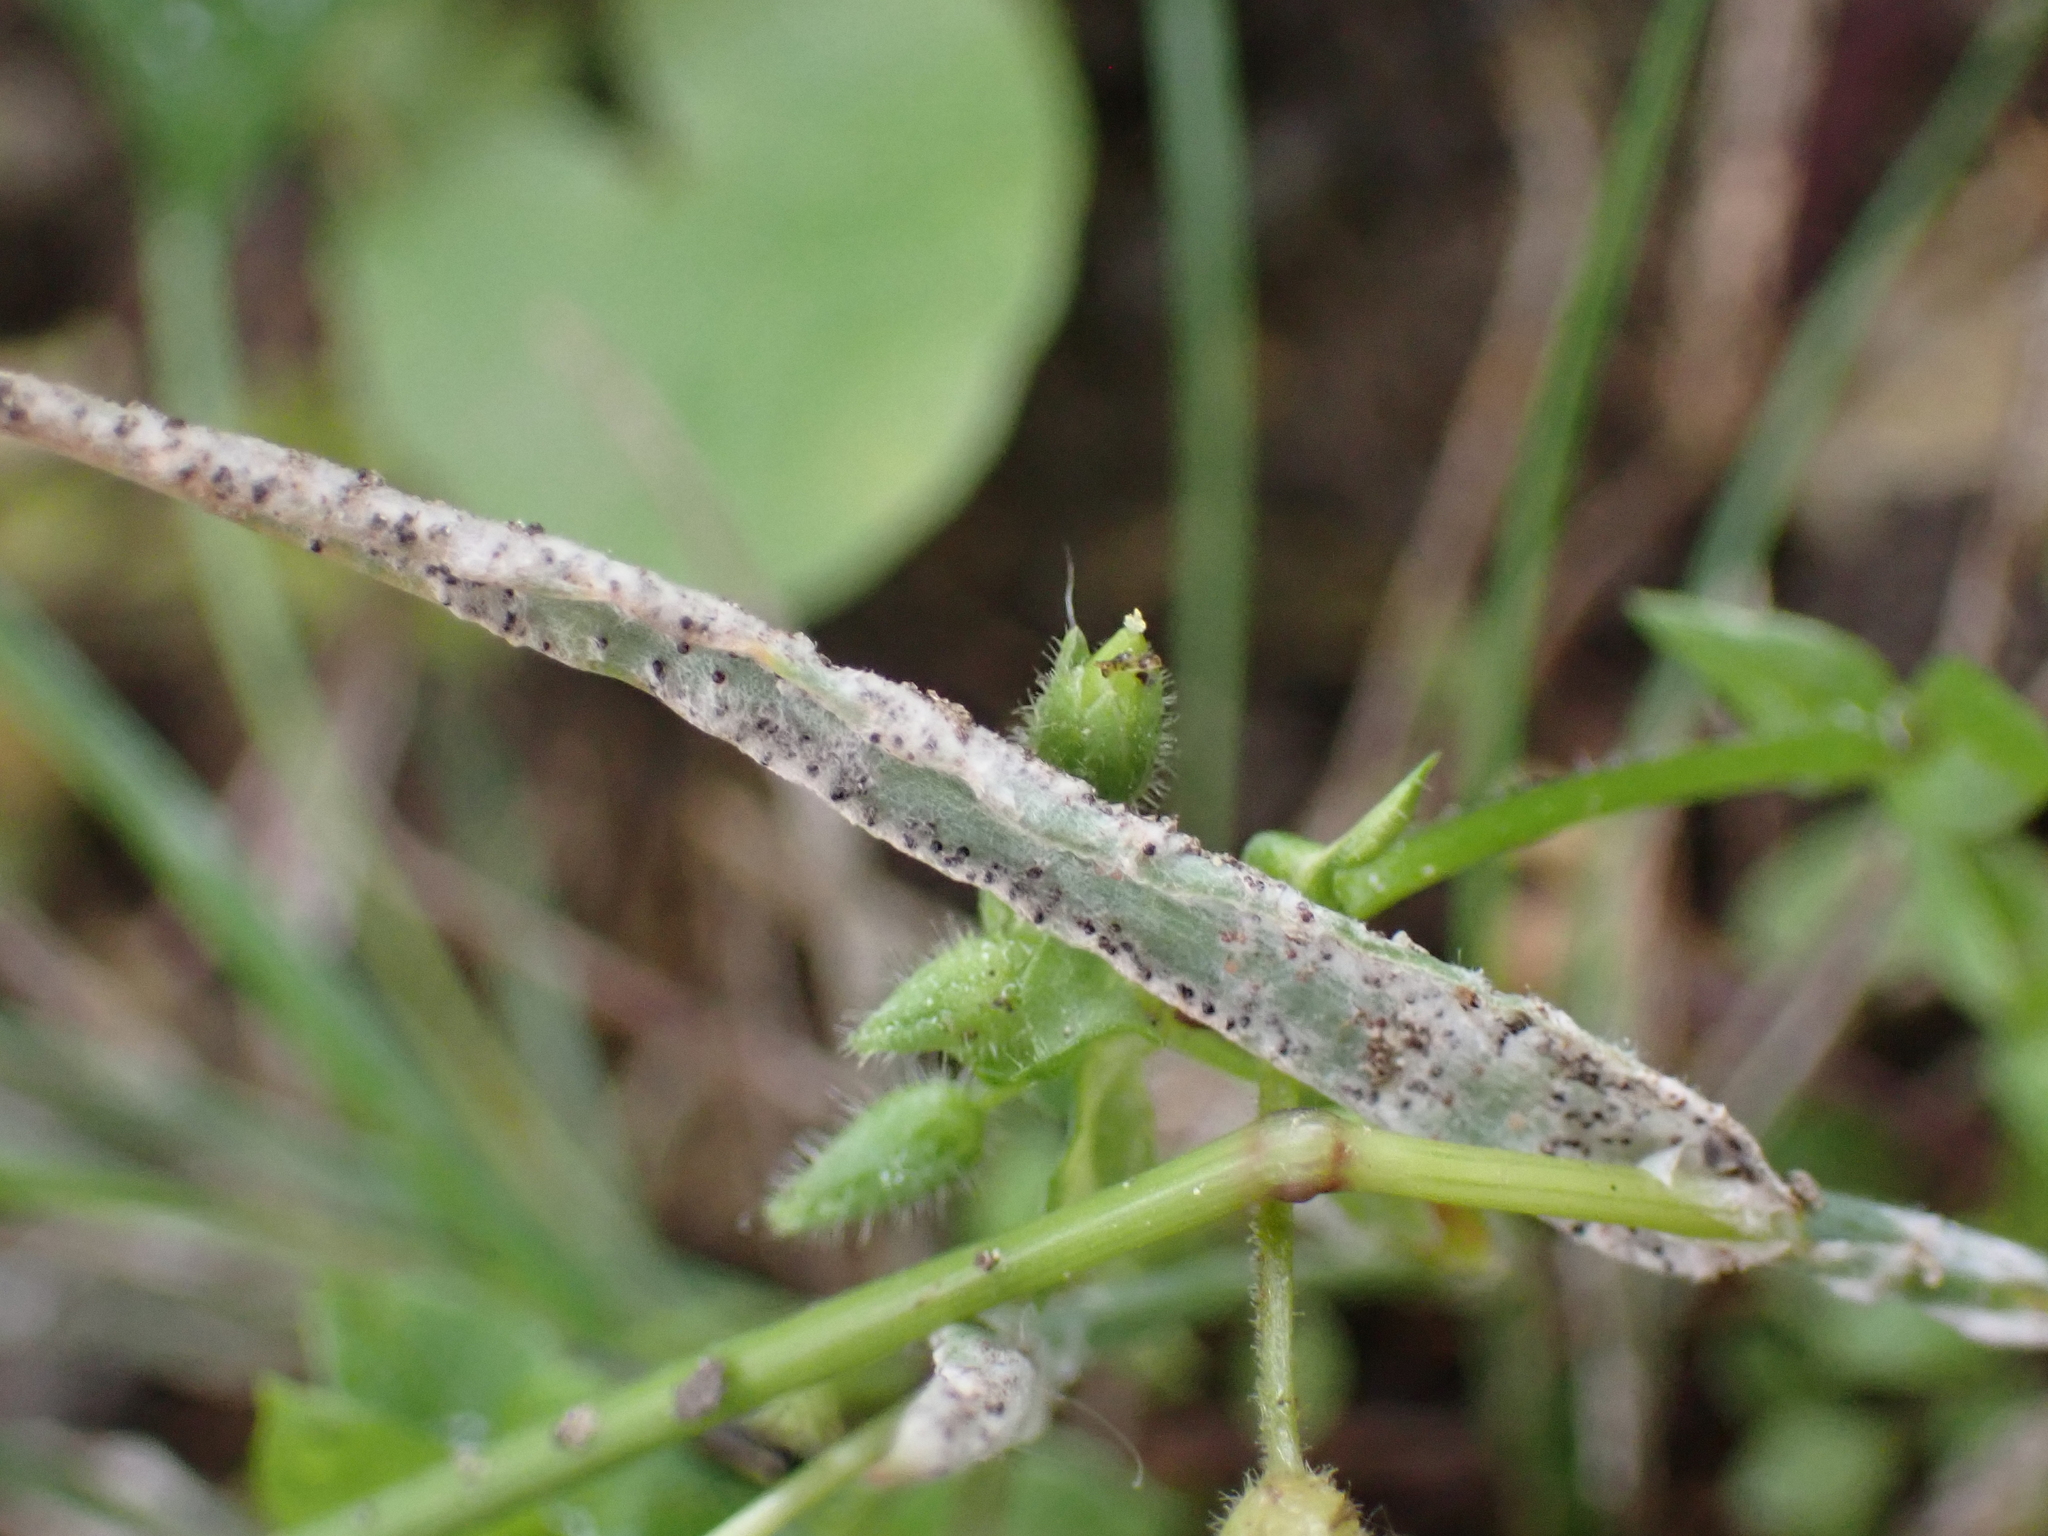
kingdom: Fungi
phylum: Ascomycota
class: Leotiomycetes
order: Helotiales
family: Erysiphaceae
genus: Blumeria
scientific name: Blumeria graminicola
